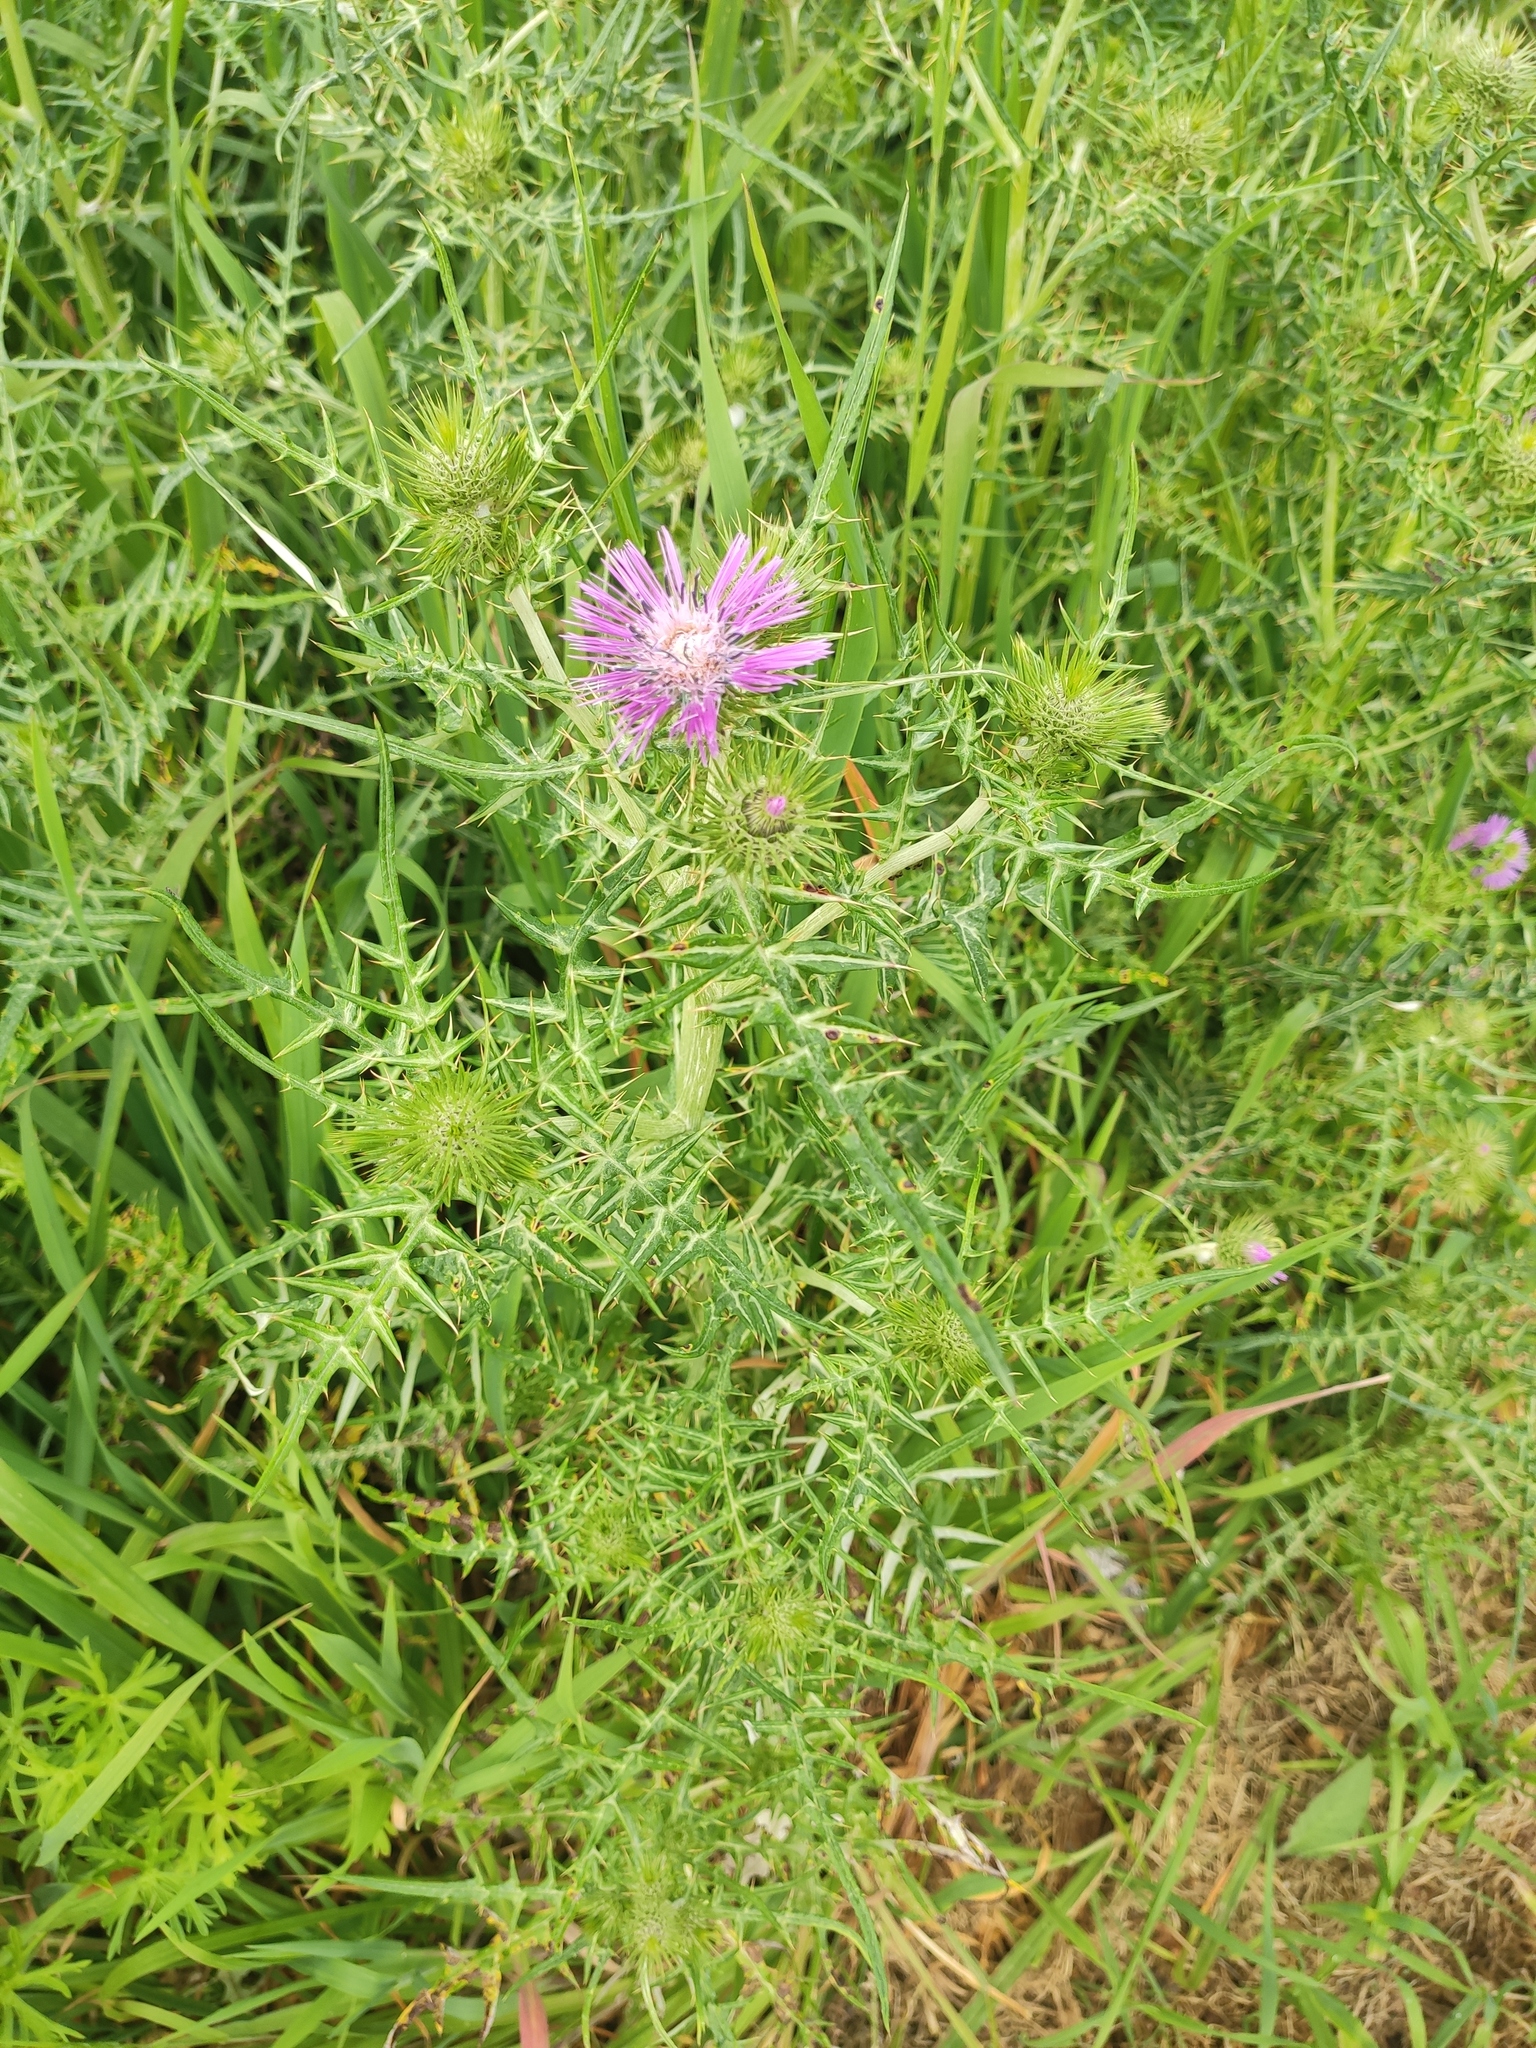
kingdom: Plantae
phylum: Tracheophyta
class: Magnoliopsida
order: Asterales
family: Asteraceae
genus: Galactites
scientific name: Galactites tomentosa
